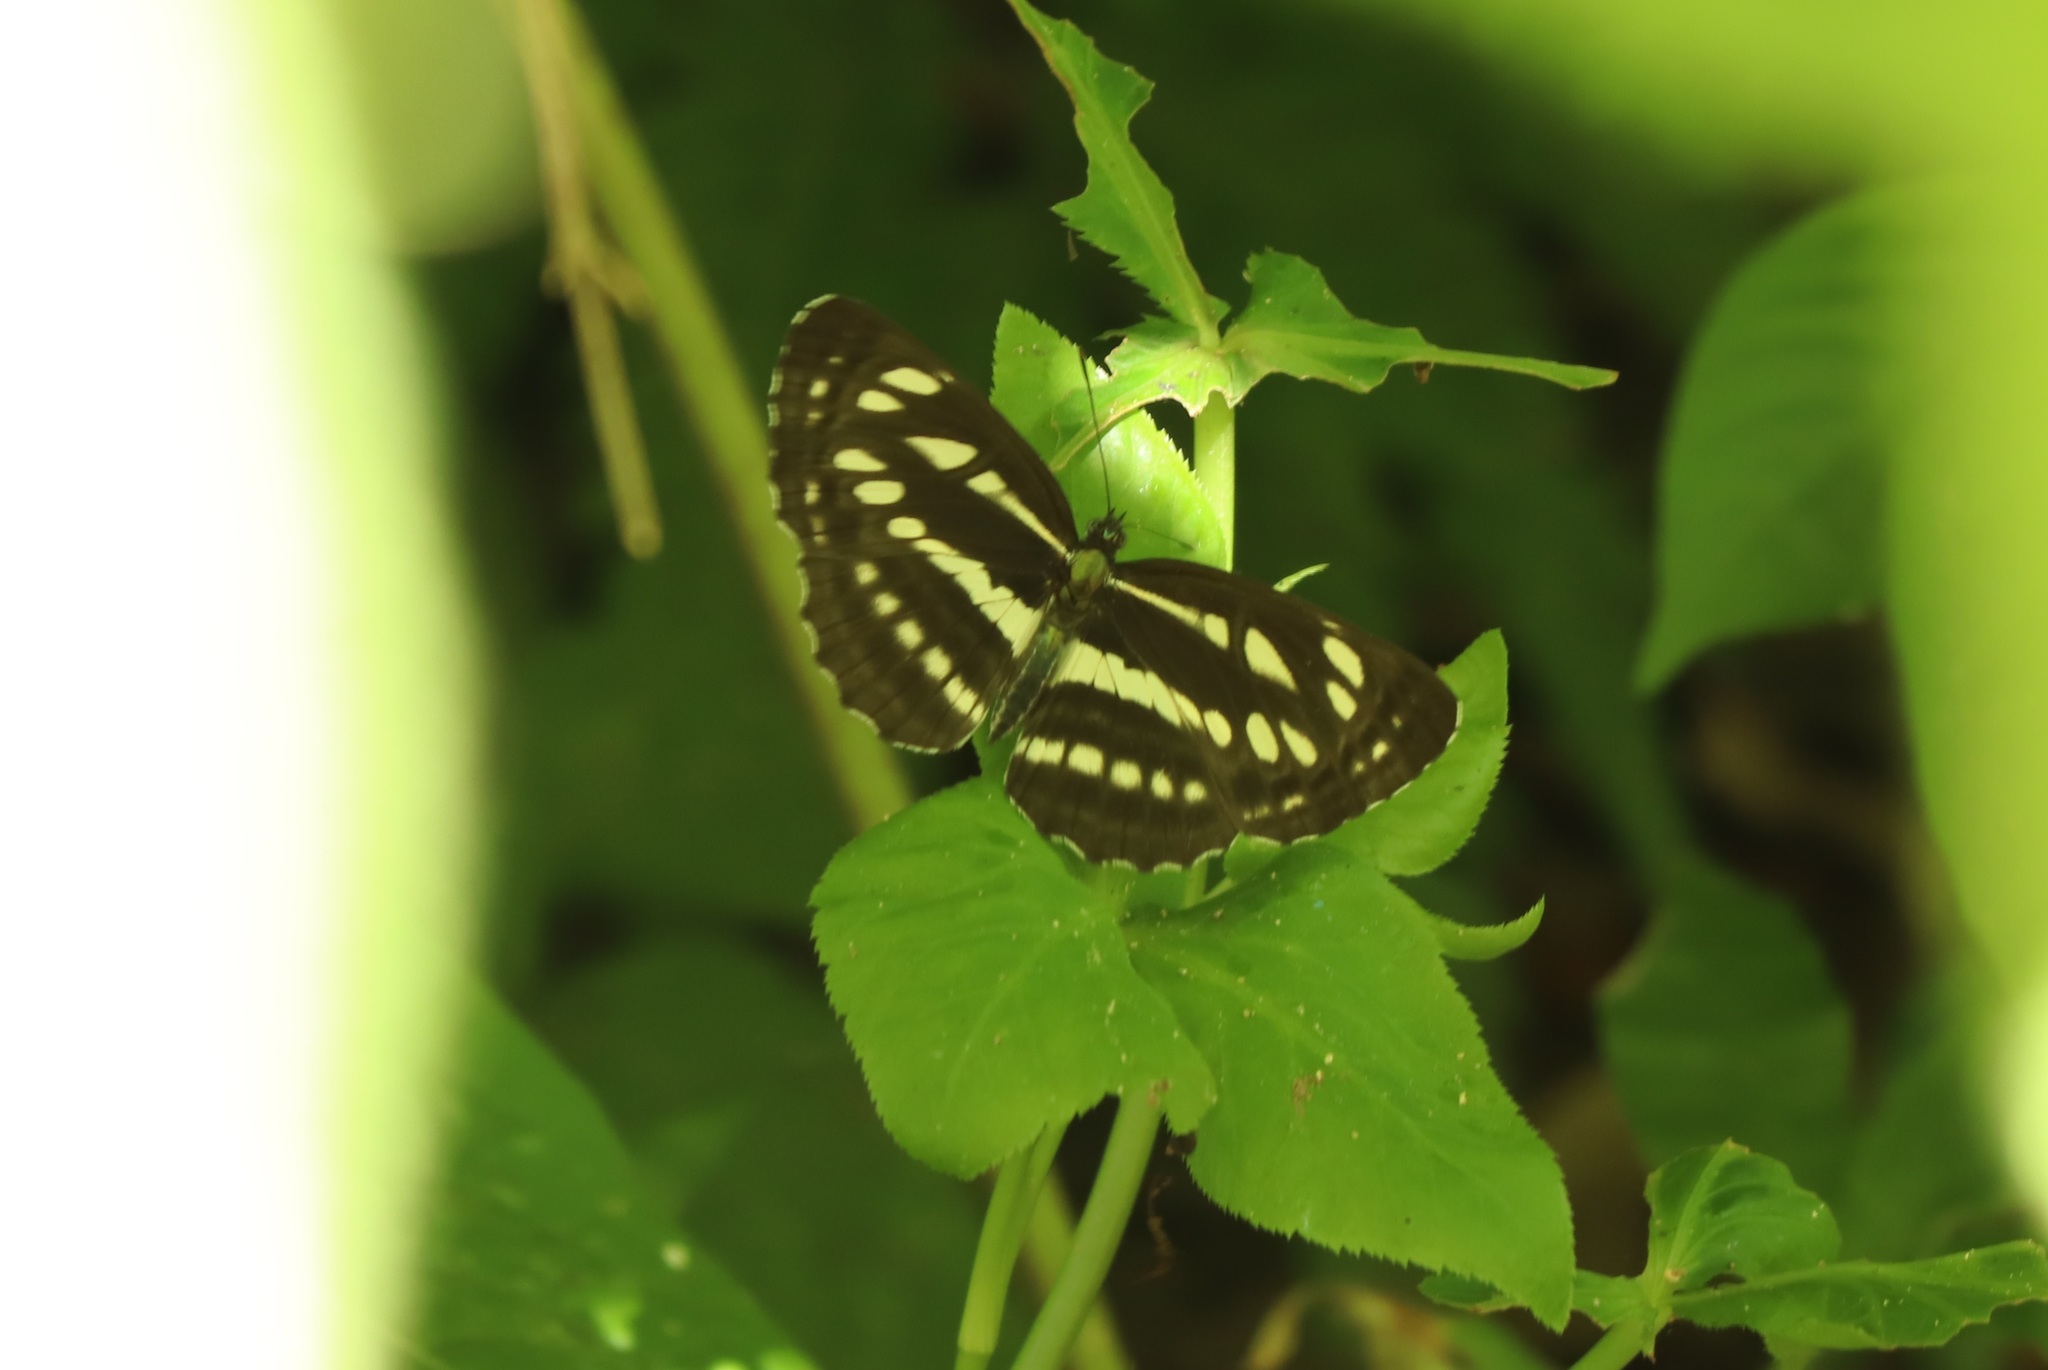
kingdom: Animalia
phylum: Arthropoda
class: Insecta
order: Lepidoptera
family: Nymphalidae
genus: Neptis
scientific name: Neptis sappho
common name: Common glider
